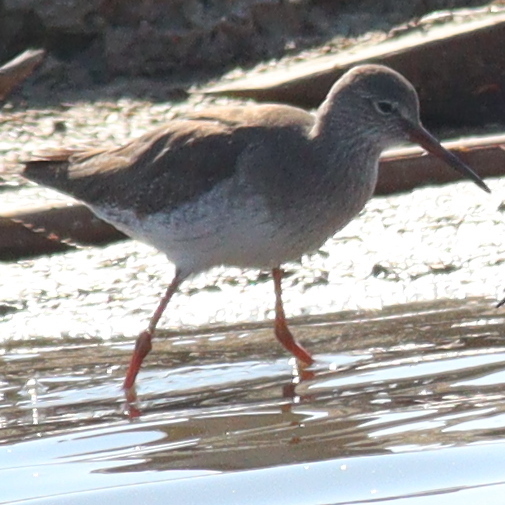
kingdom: Animalia
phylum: Chordata
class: Aves
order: Charadriiformes
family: Scolopacidae
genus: Tringa
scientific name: Tringa totanus
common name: Common redshank
